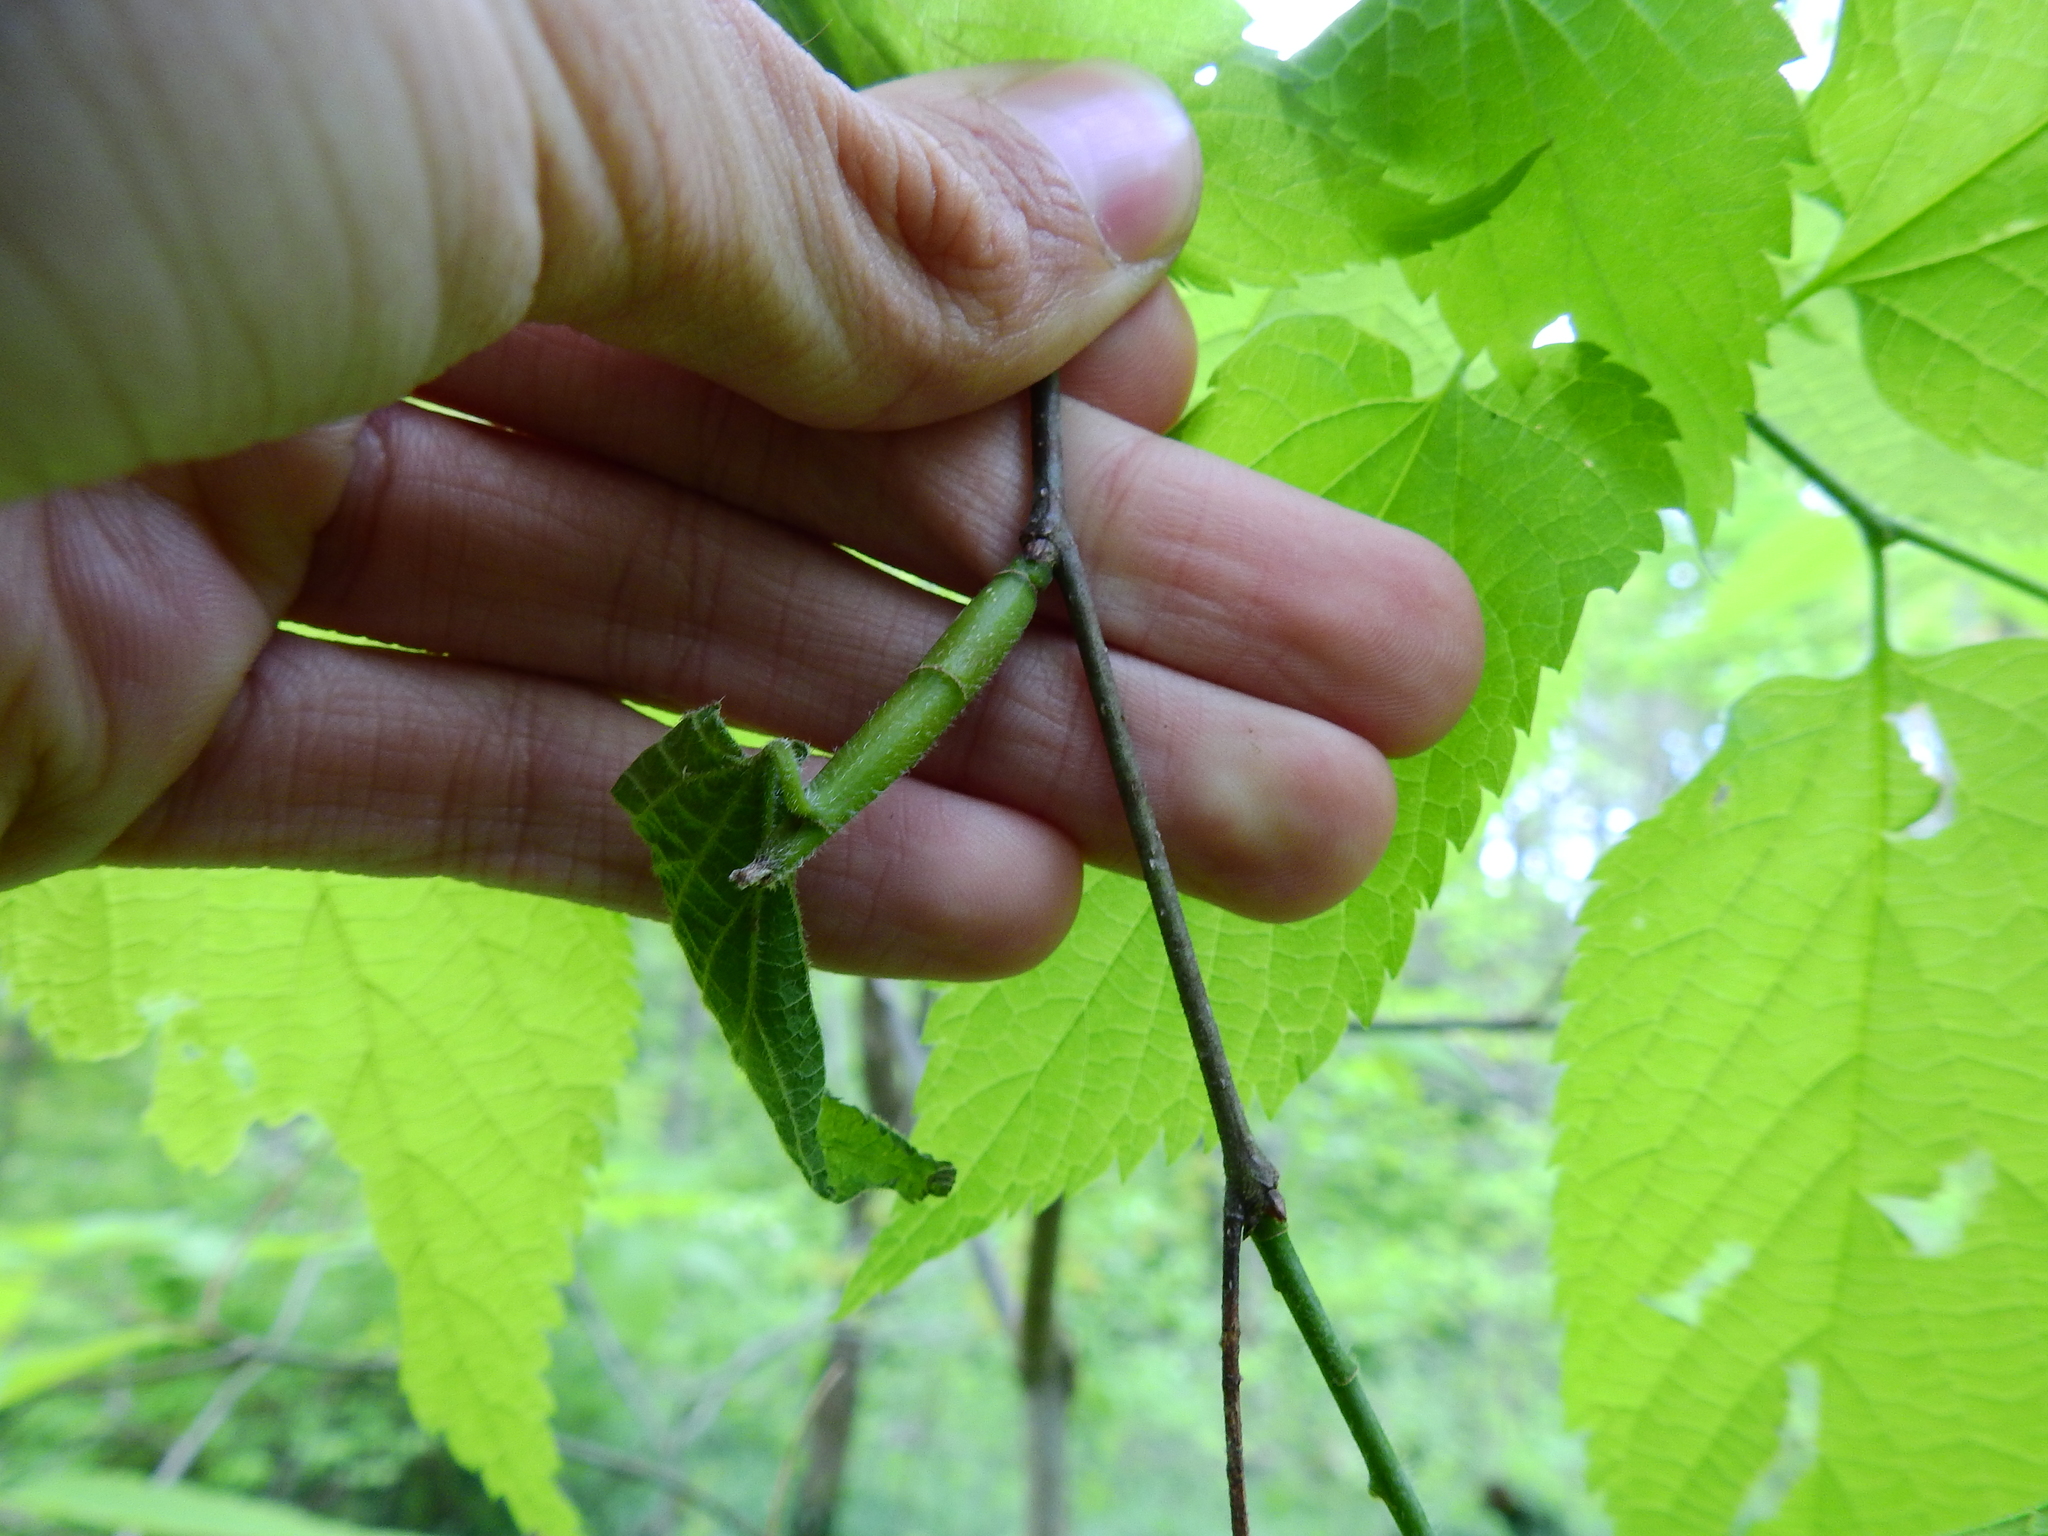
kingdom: Animalia
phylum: Arthropoda
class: Insecta
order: Diptera
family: Agromyzidae
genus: Agromyza
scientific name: Agromyza deserta
